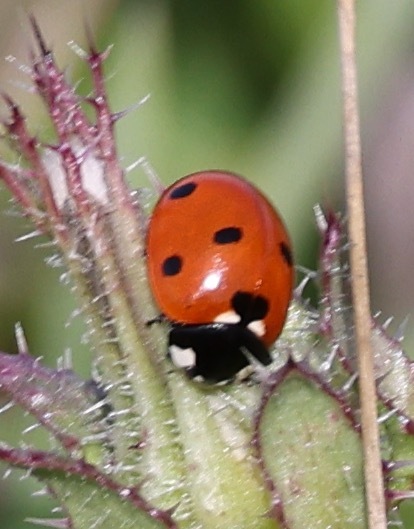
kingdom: Animalia
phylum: Arthropoda
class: Insecta
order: Coleoptera
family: Coccinellidae
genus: Coccinella
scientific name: Coccinella septempunctata
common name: Sevenspotted lady beetle
